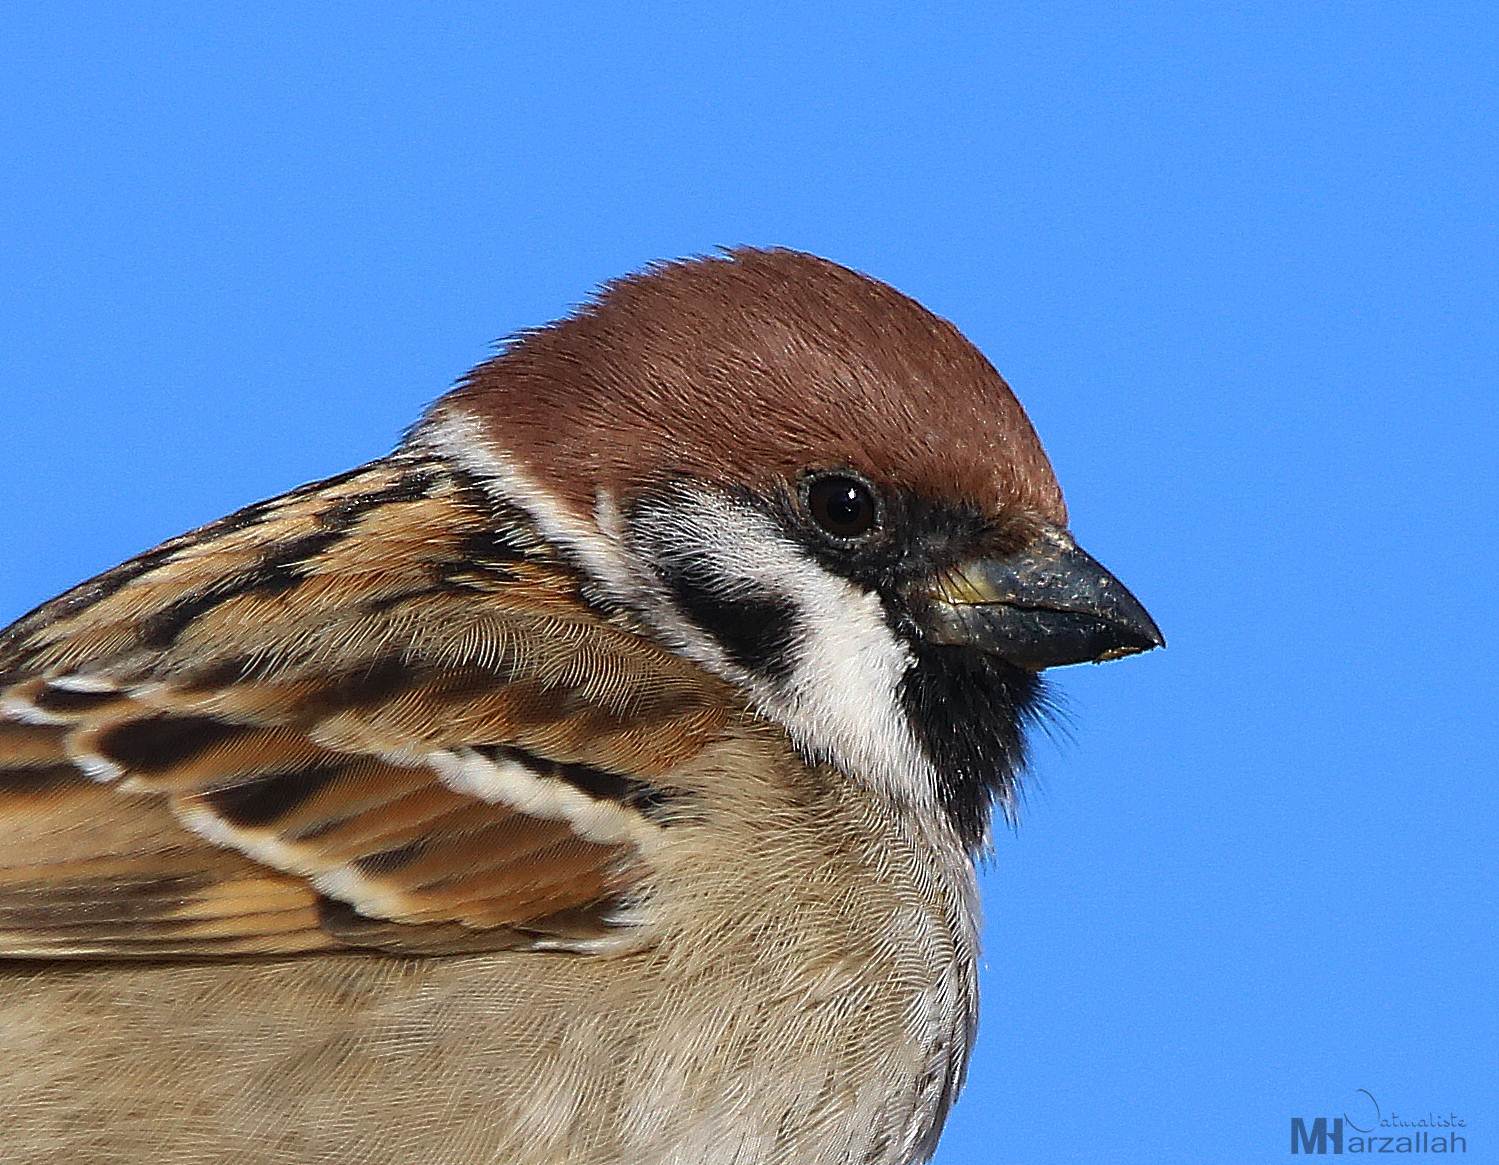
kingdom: Animalia
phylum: Chordata
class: Aves
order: Passeriformes
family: Passeridae
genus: Passer
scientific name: Passer montanus
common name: Eurasian tree sparrow
